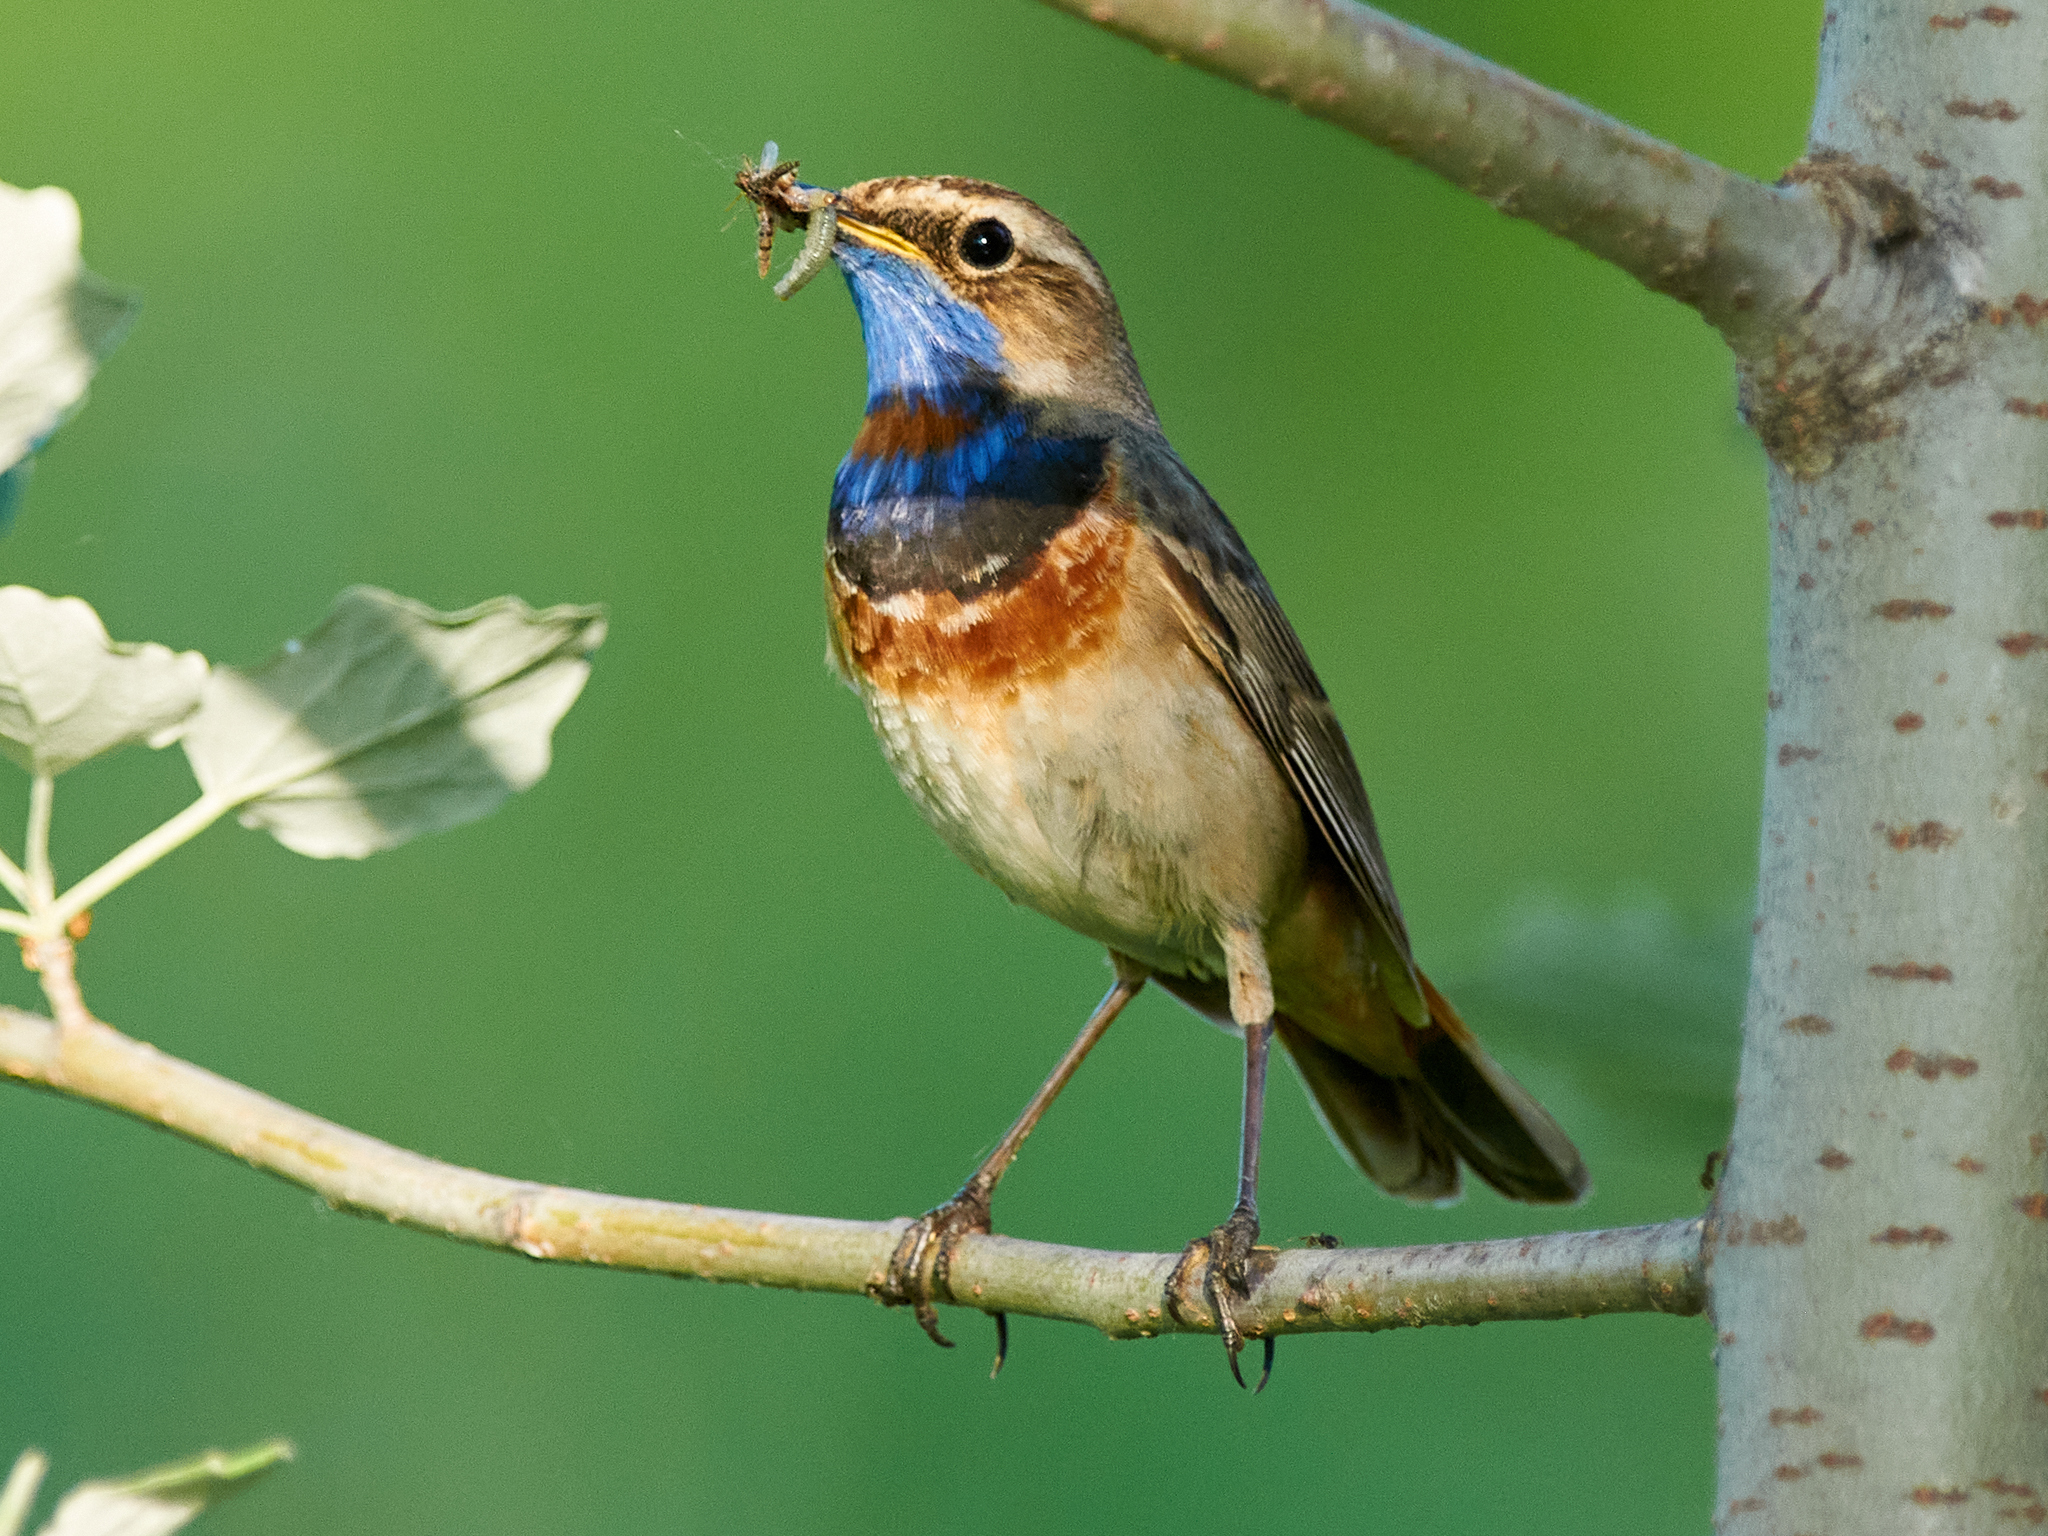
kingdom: Animalia
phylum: Chordata
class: Aves
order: Passeriformes
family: Muscicapidae
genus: Luscinia
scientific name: Luscinia svecica
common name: Bluethroat
